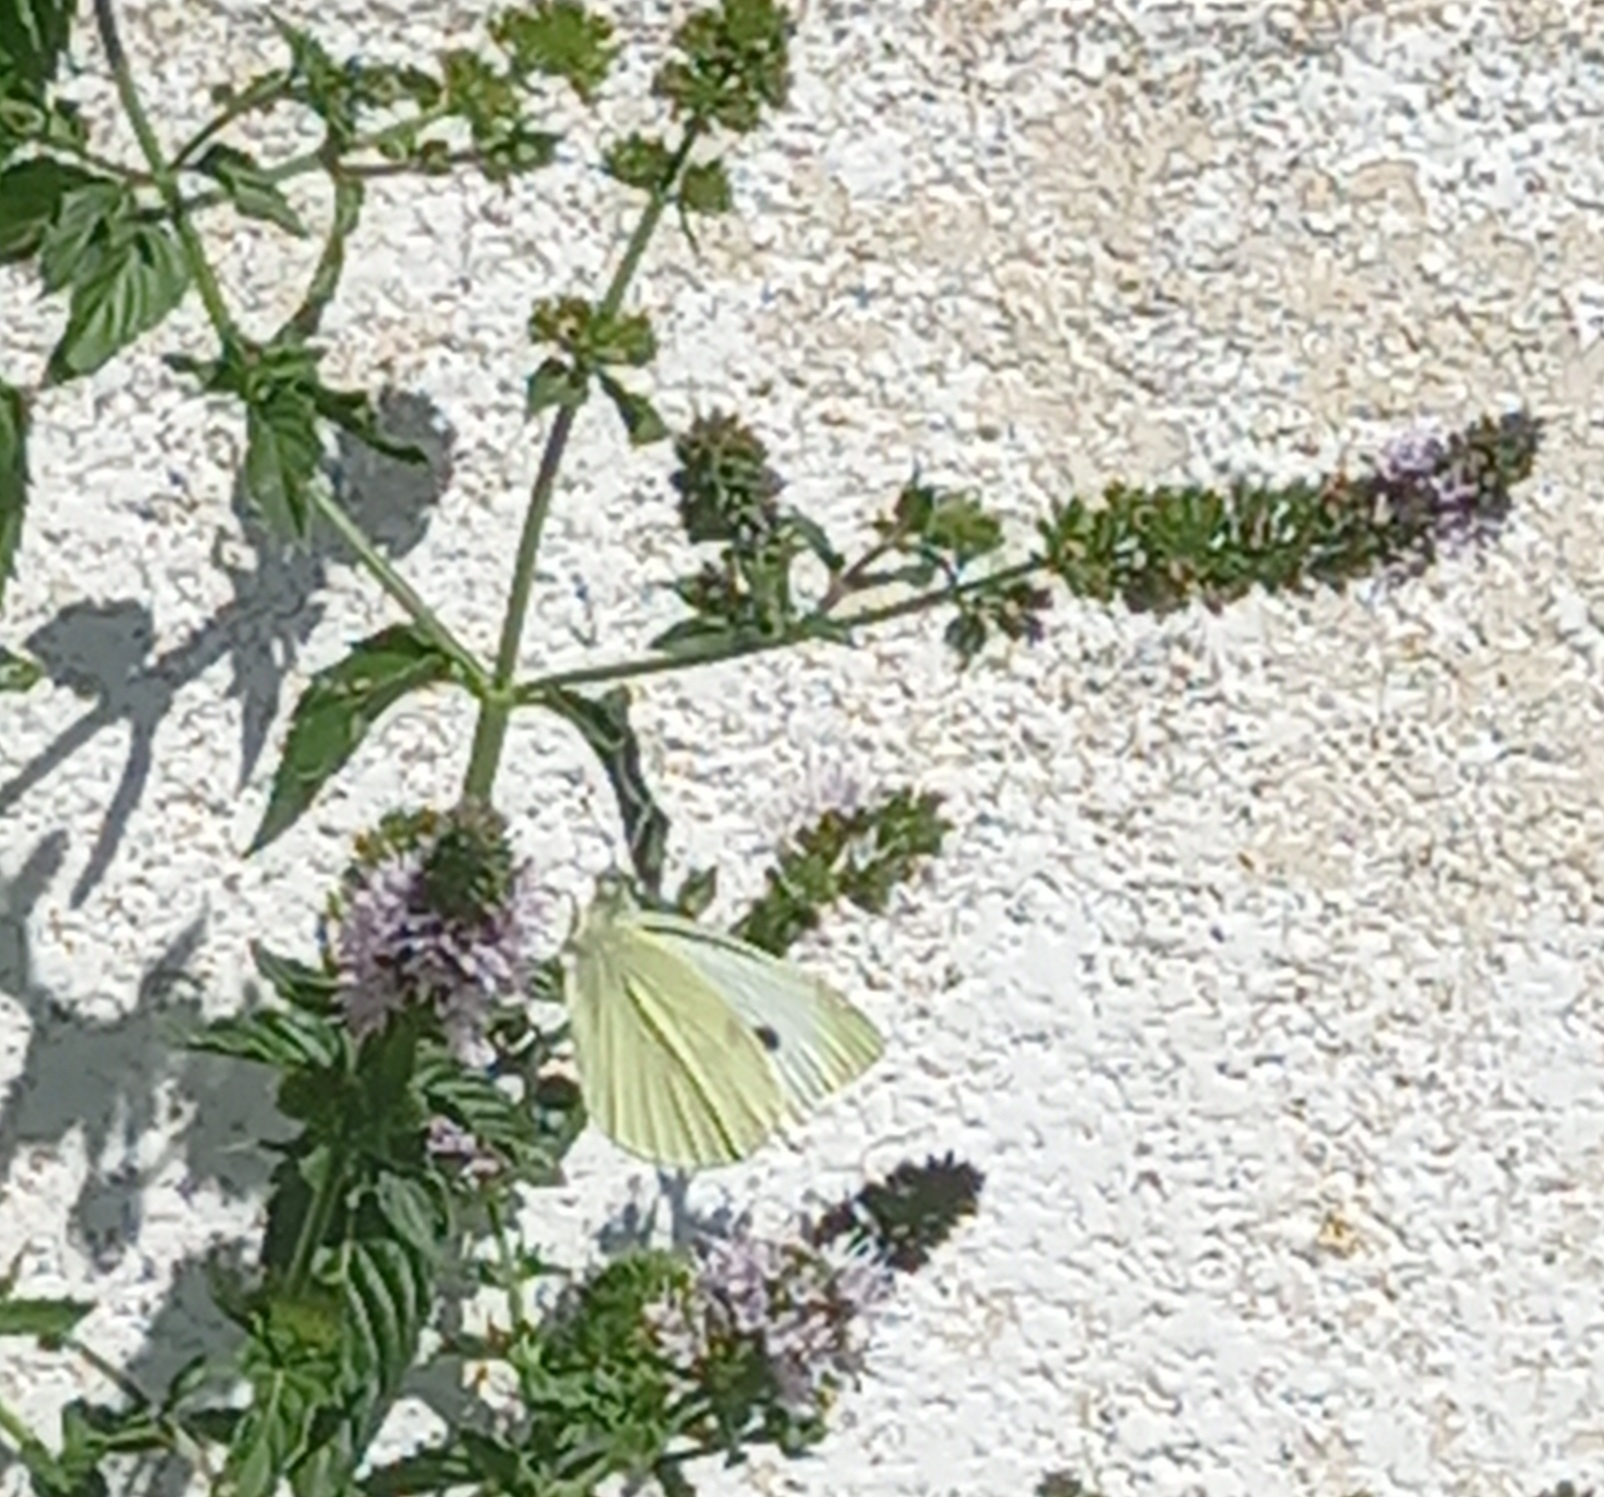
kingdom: Animalia
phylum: Arthropoda
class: Insecta
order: Lepidoptera
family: Pieridae
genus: Pieris
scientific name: Pieris rapae
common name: Small white
